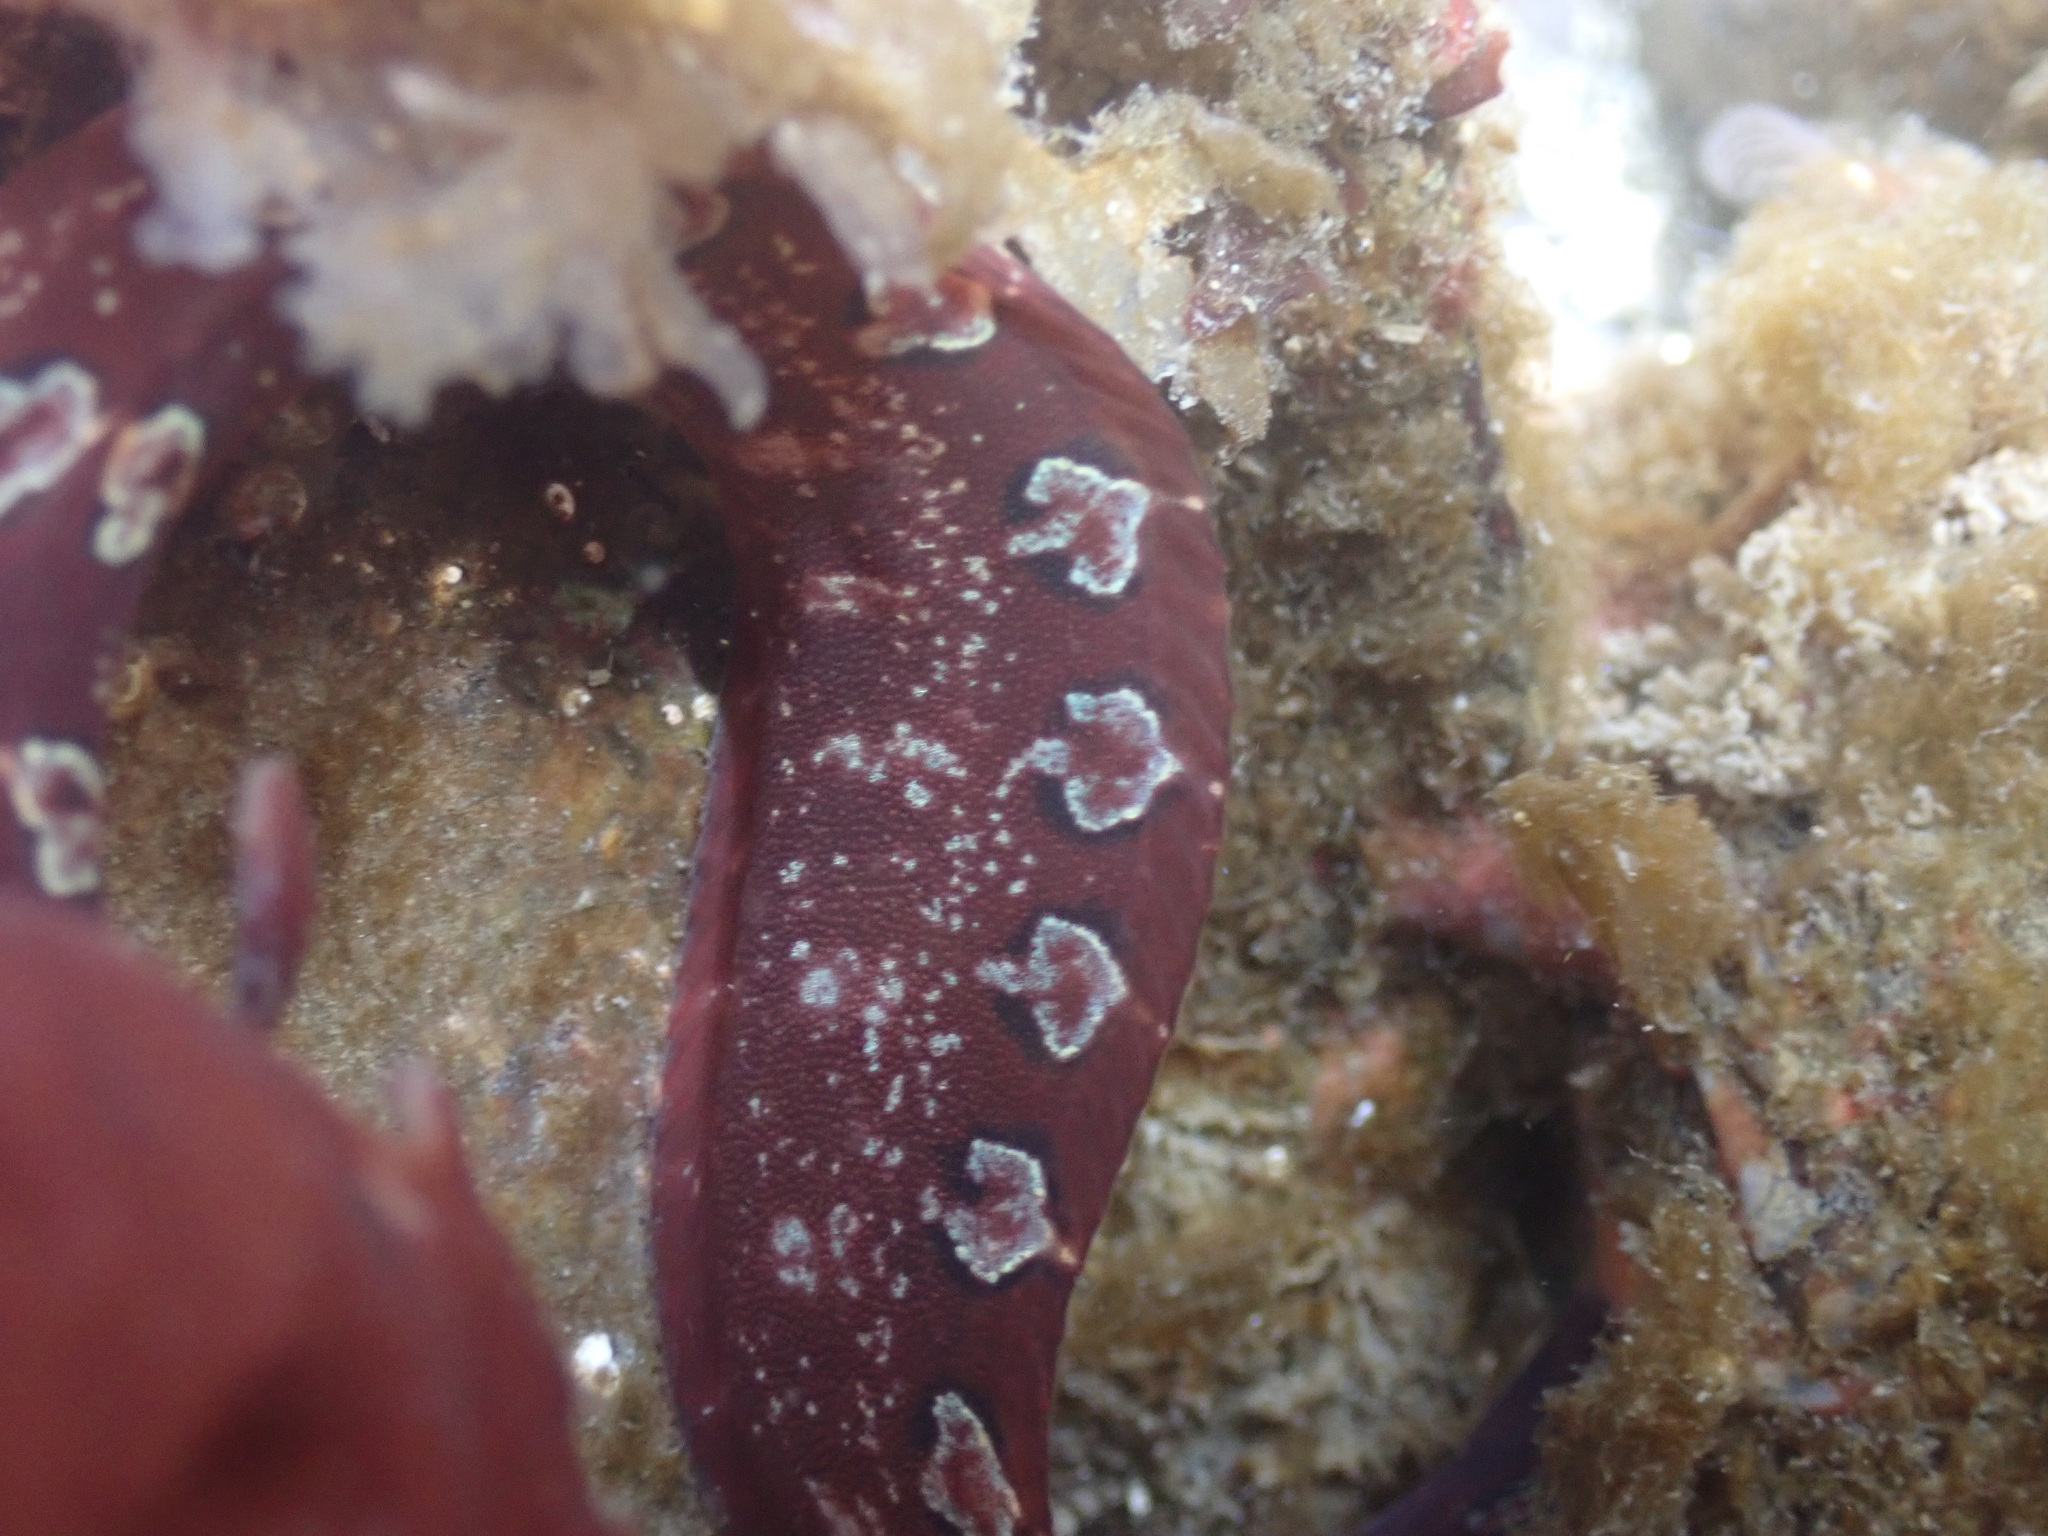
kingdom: Animalia
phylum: Chordata
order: Perciformes
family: Pholidae
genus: Pholis
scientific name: Pholis laeta
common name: Crescent gunnel
